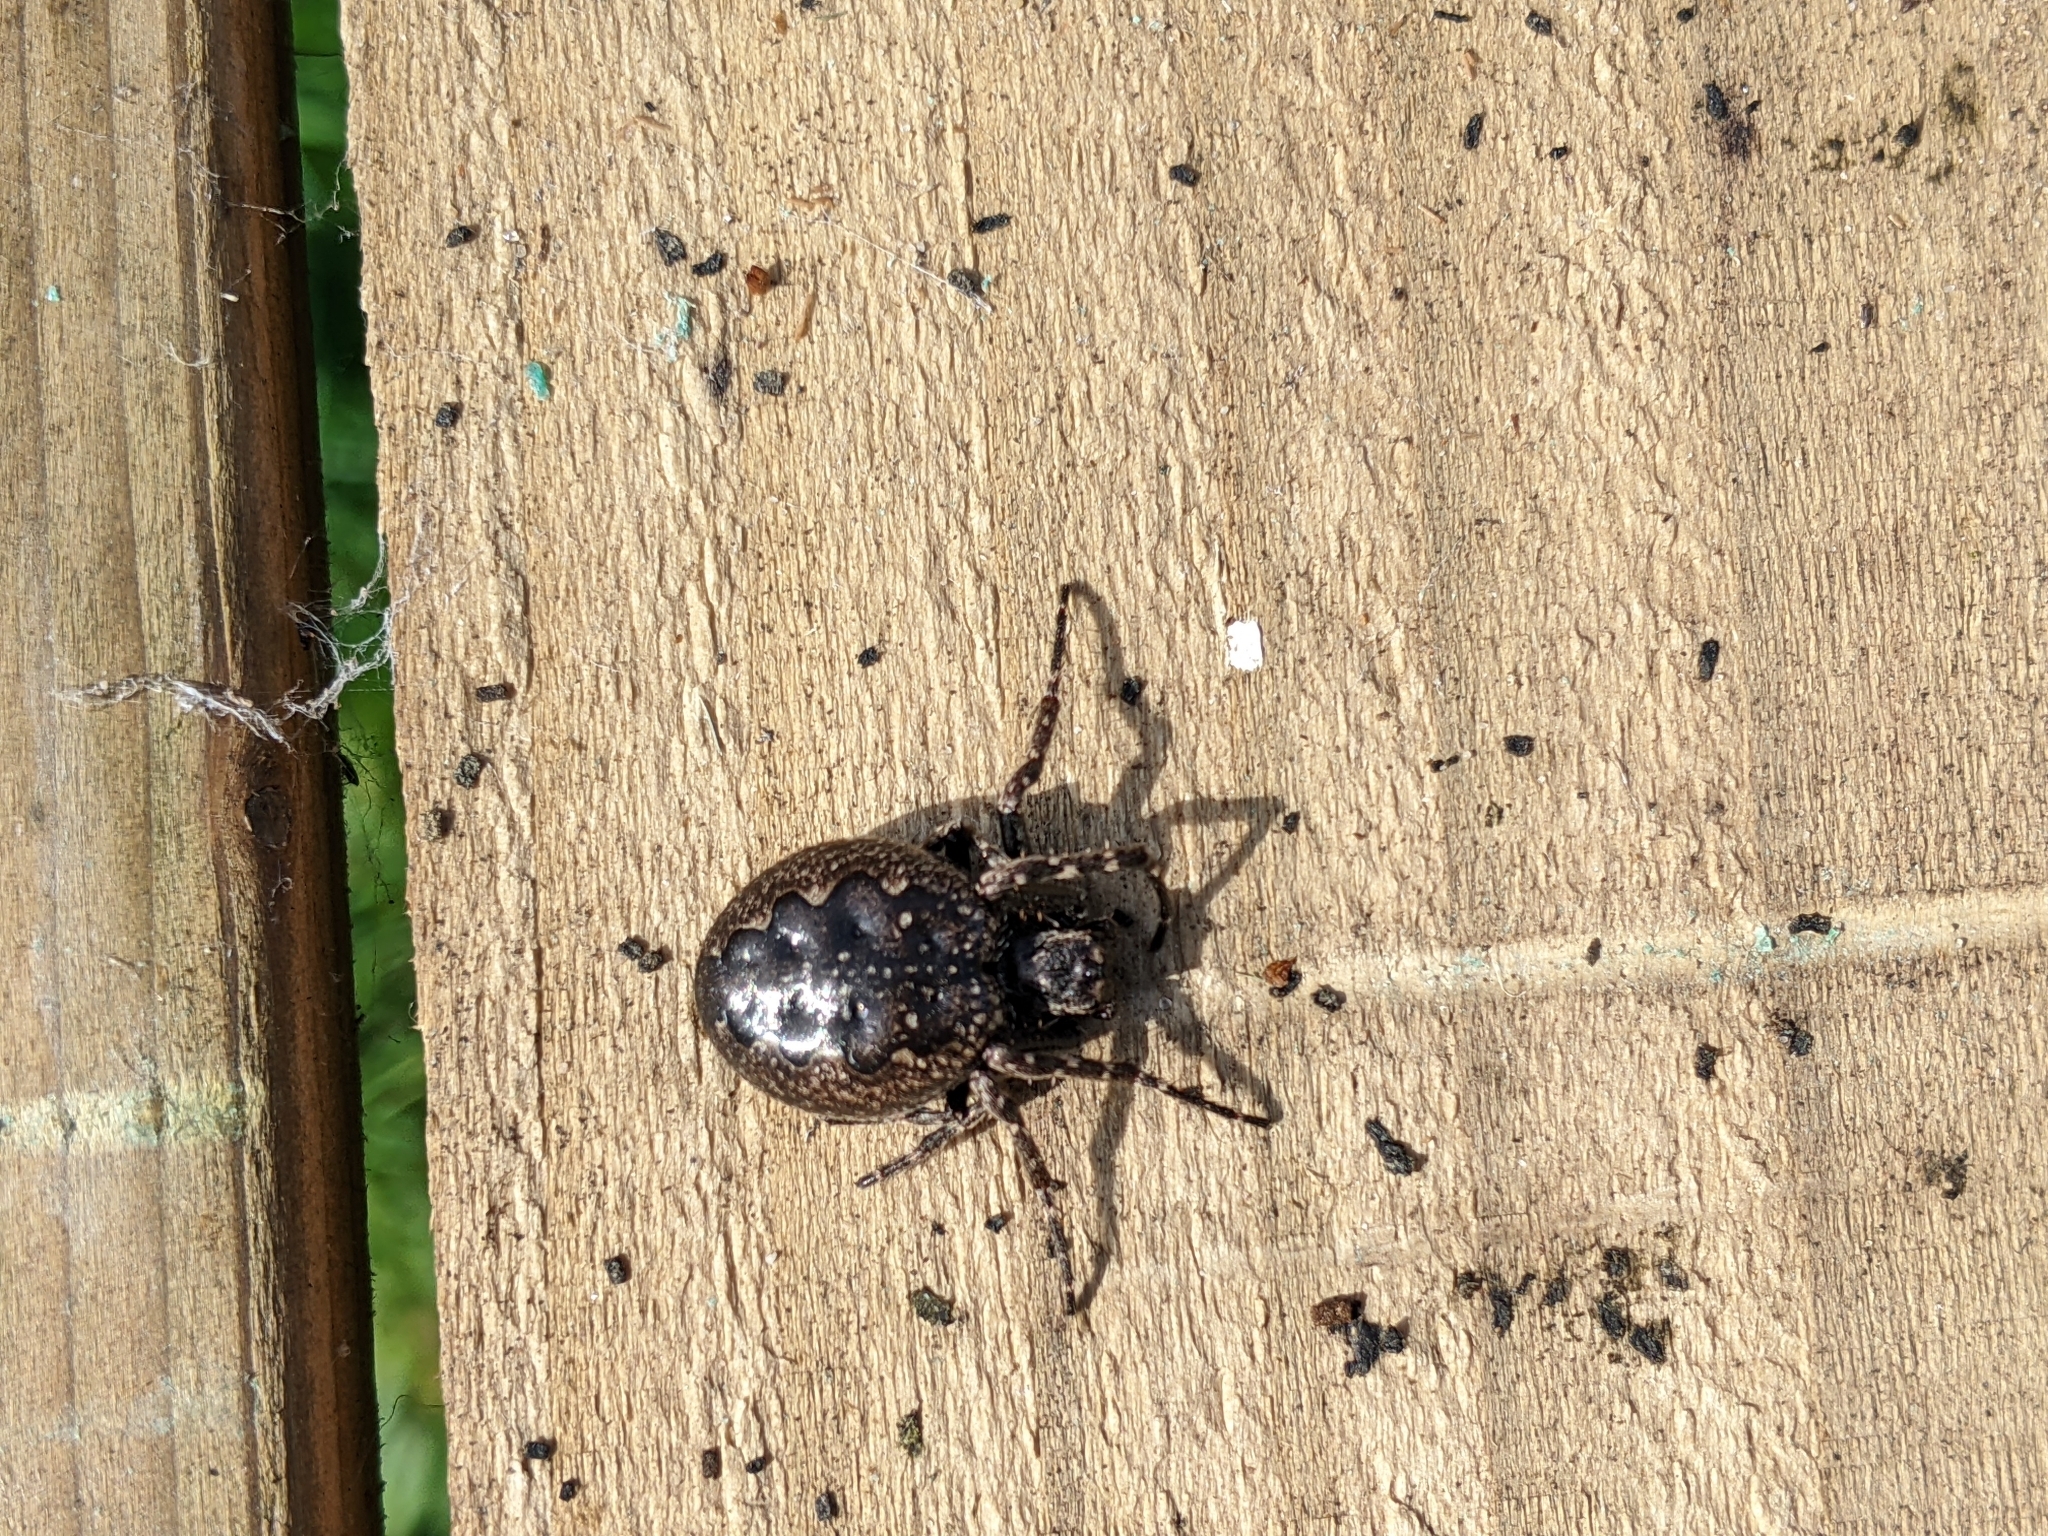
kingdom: Animalia
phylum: Arthropoda
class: Arachnida
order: Araneae
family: Araneidae
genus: Nuctenea
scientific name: Nuctenea umbratica
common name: Toad spider
